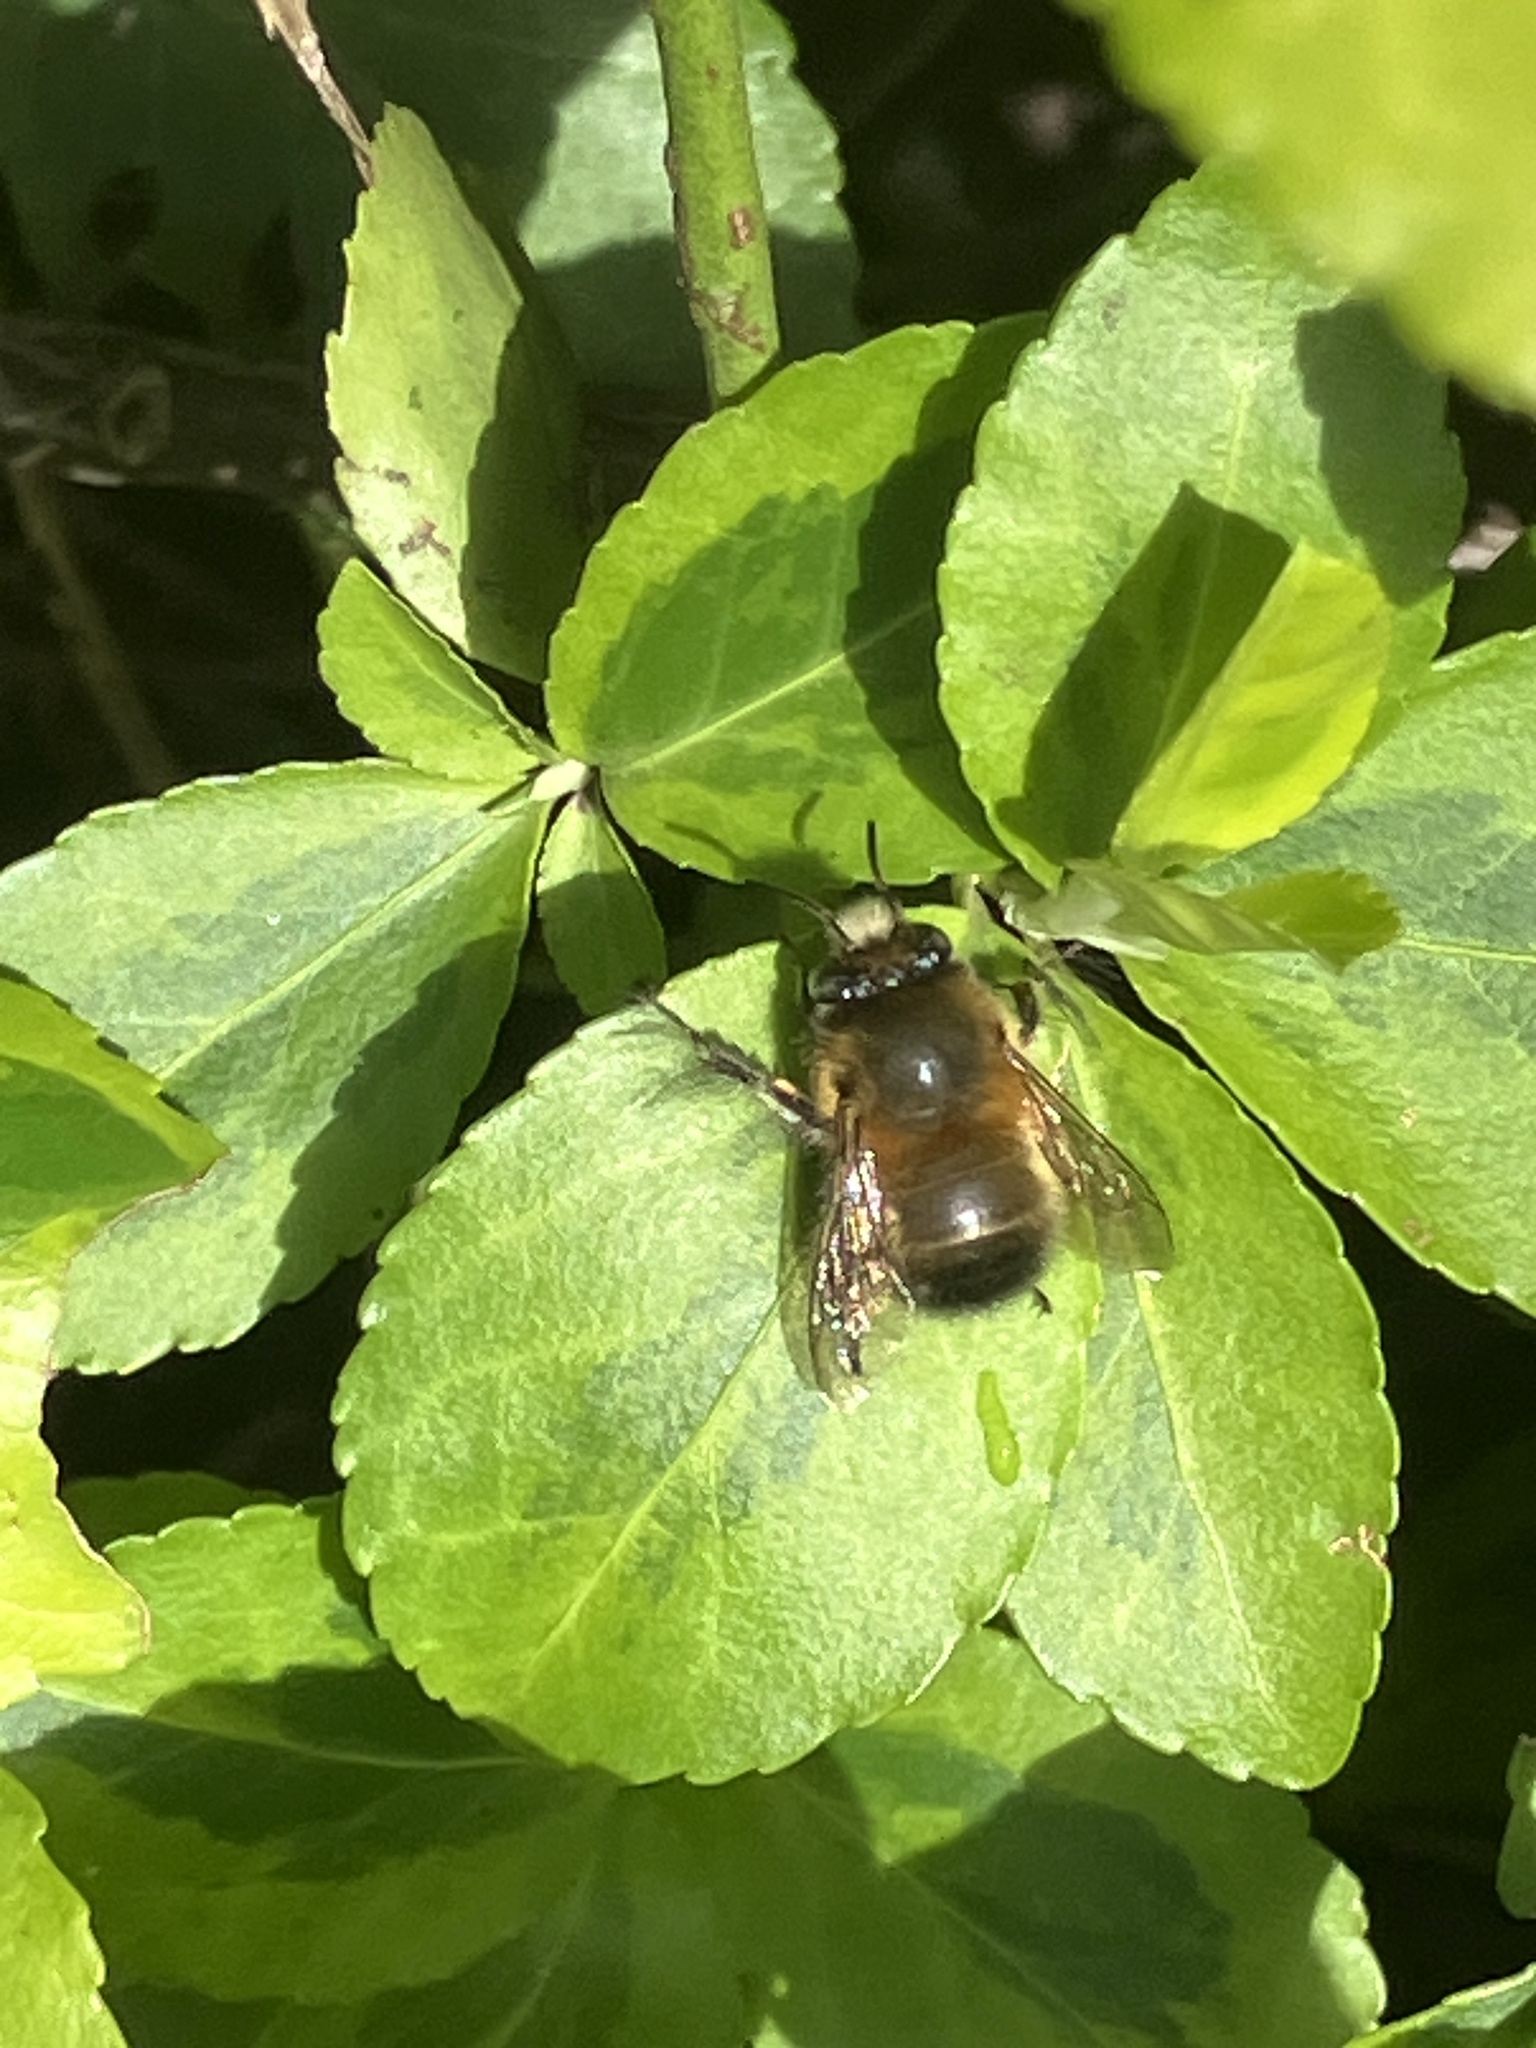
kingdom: Animalia
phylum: Arthropoda
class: Insecta
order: Hymenoptera
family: Apidae
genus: Anthophora
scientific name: Anthophora plumipes
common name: Hairy-footed flower bee
